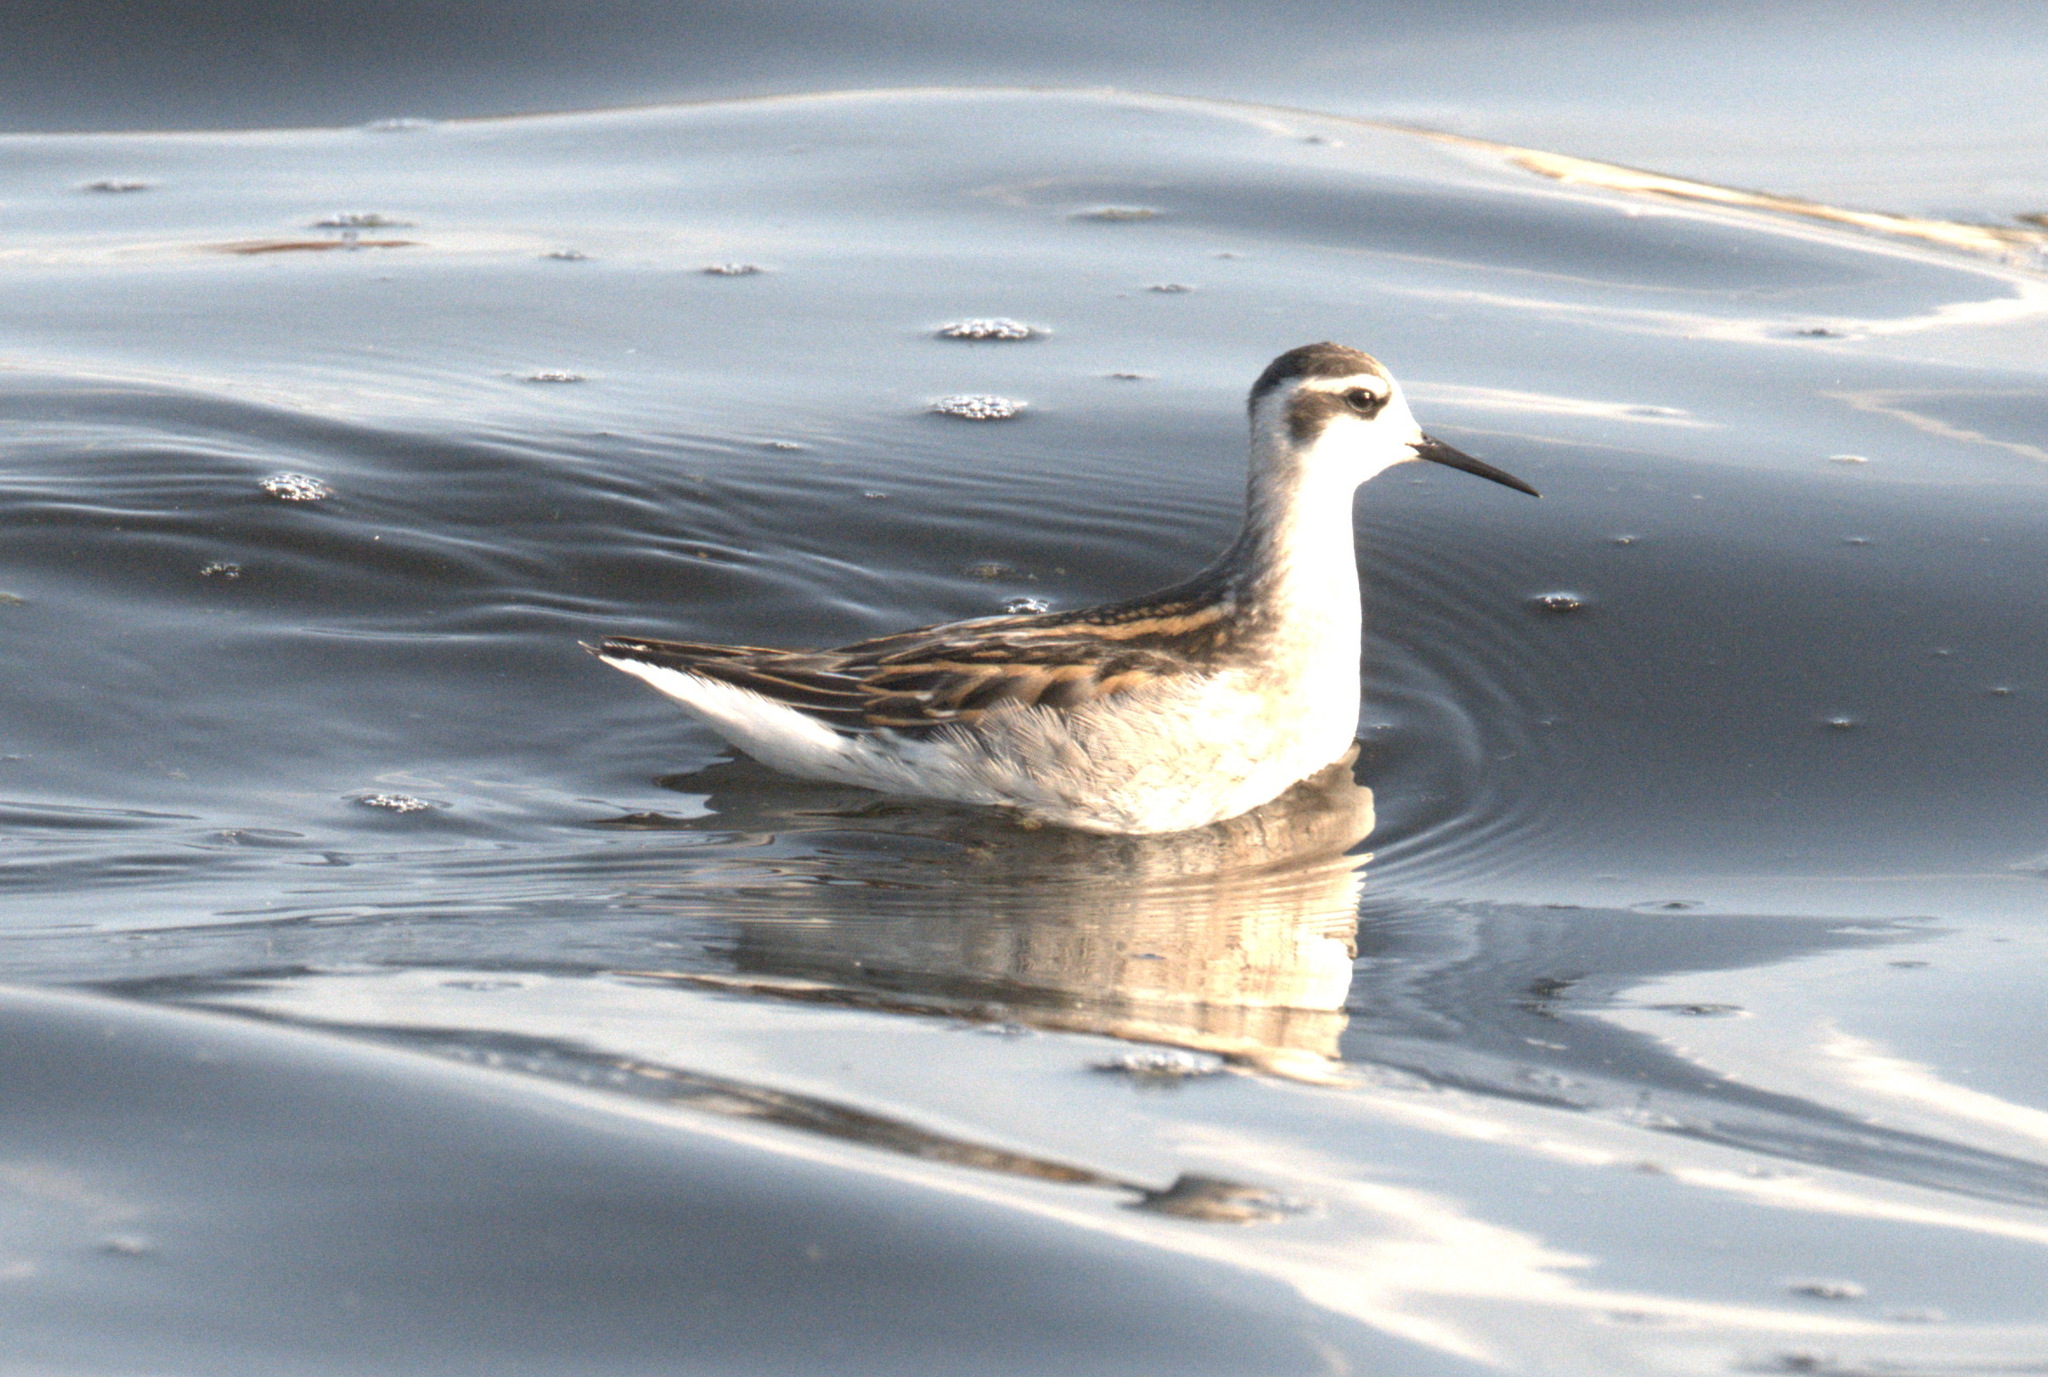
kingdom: Animalia
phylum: Chordata
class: Aves
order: Charadriiformes
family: Scolopacidae
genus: Phalaropus
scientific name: Phalaropus lobatus
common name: Red-necked phalarope
